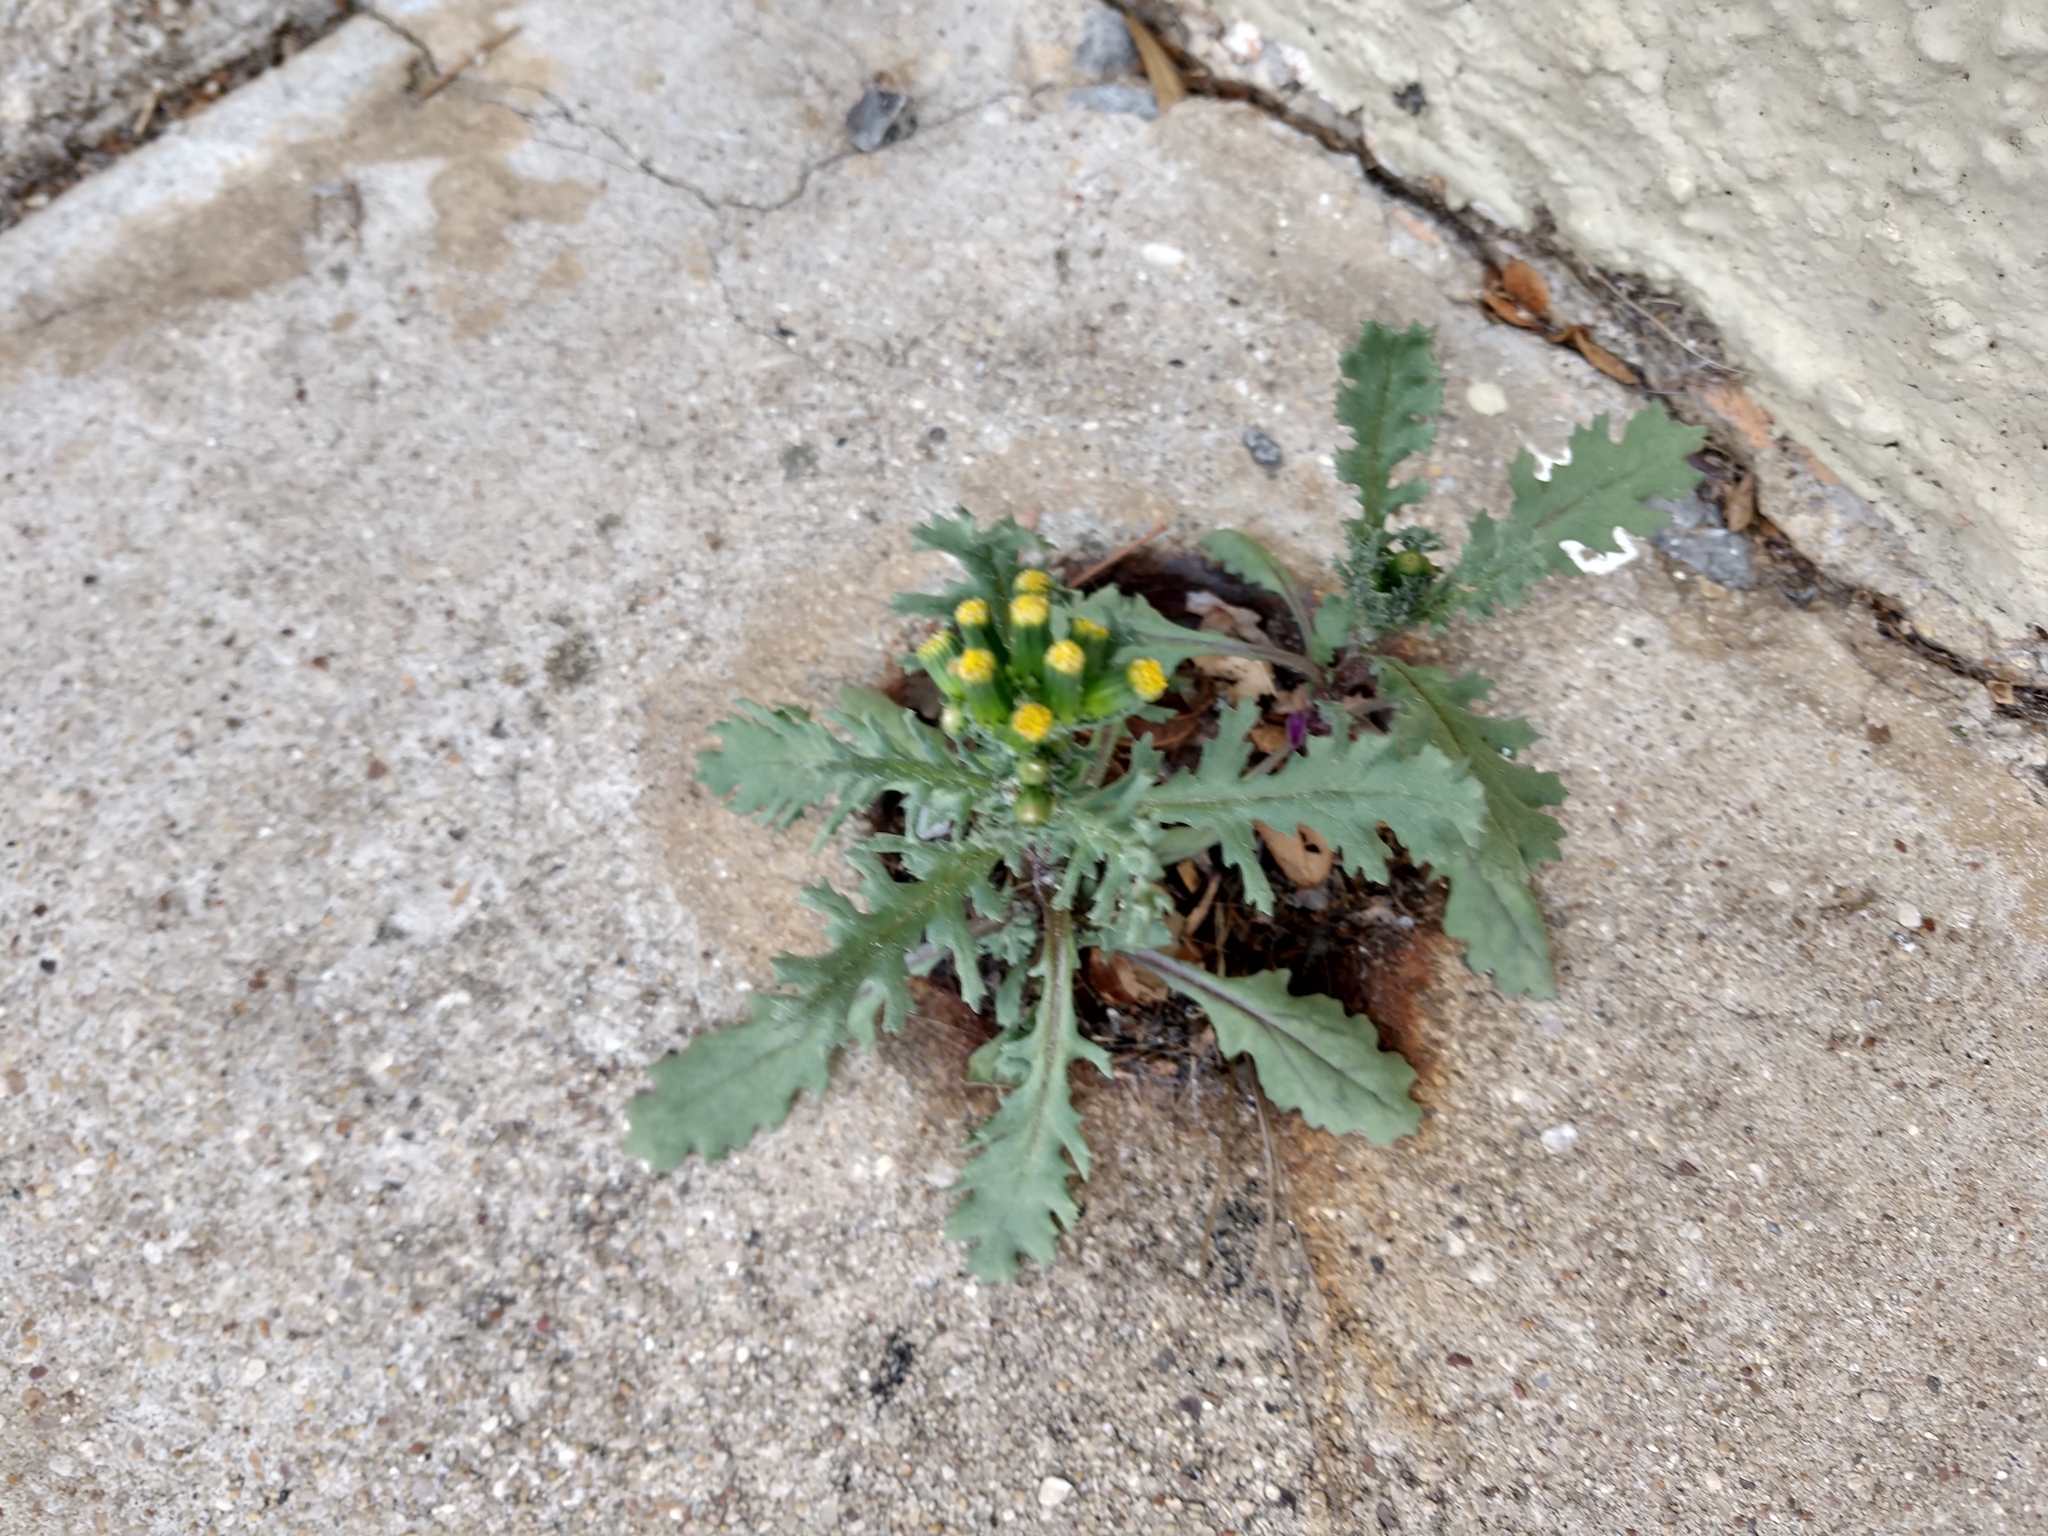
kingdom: Plantae
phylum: Tracheophyta
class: Magnoliopsida
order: Asterales
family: Asteraceae
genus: Senecio
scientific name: Senecio vulgaris
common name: Old-man-in-the-spring
